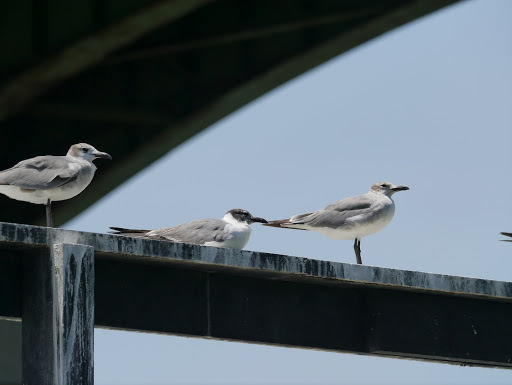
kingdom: Animalia
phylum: Chordata
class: Aves
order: Charadriiformes
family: Laridae
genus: Leucophaeus
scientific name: Leucophaeus atricilla
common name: Laughing gull
